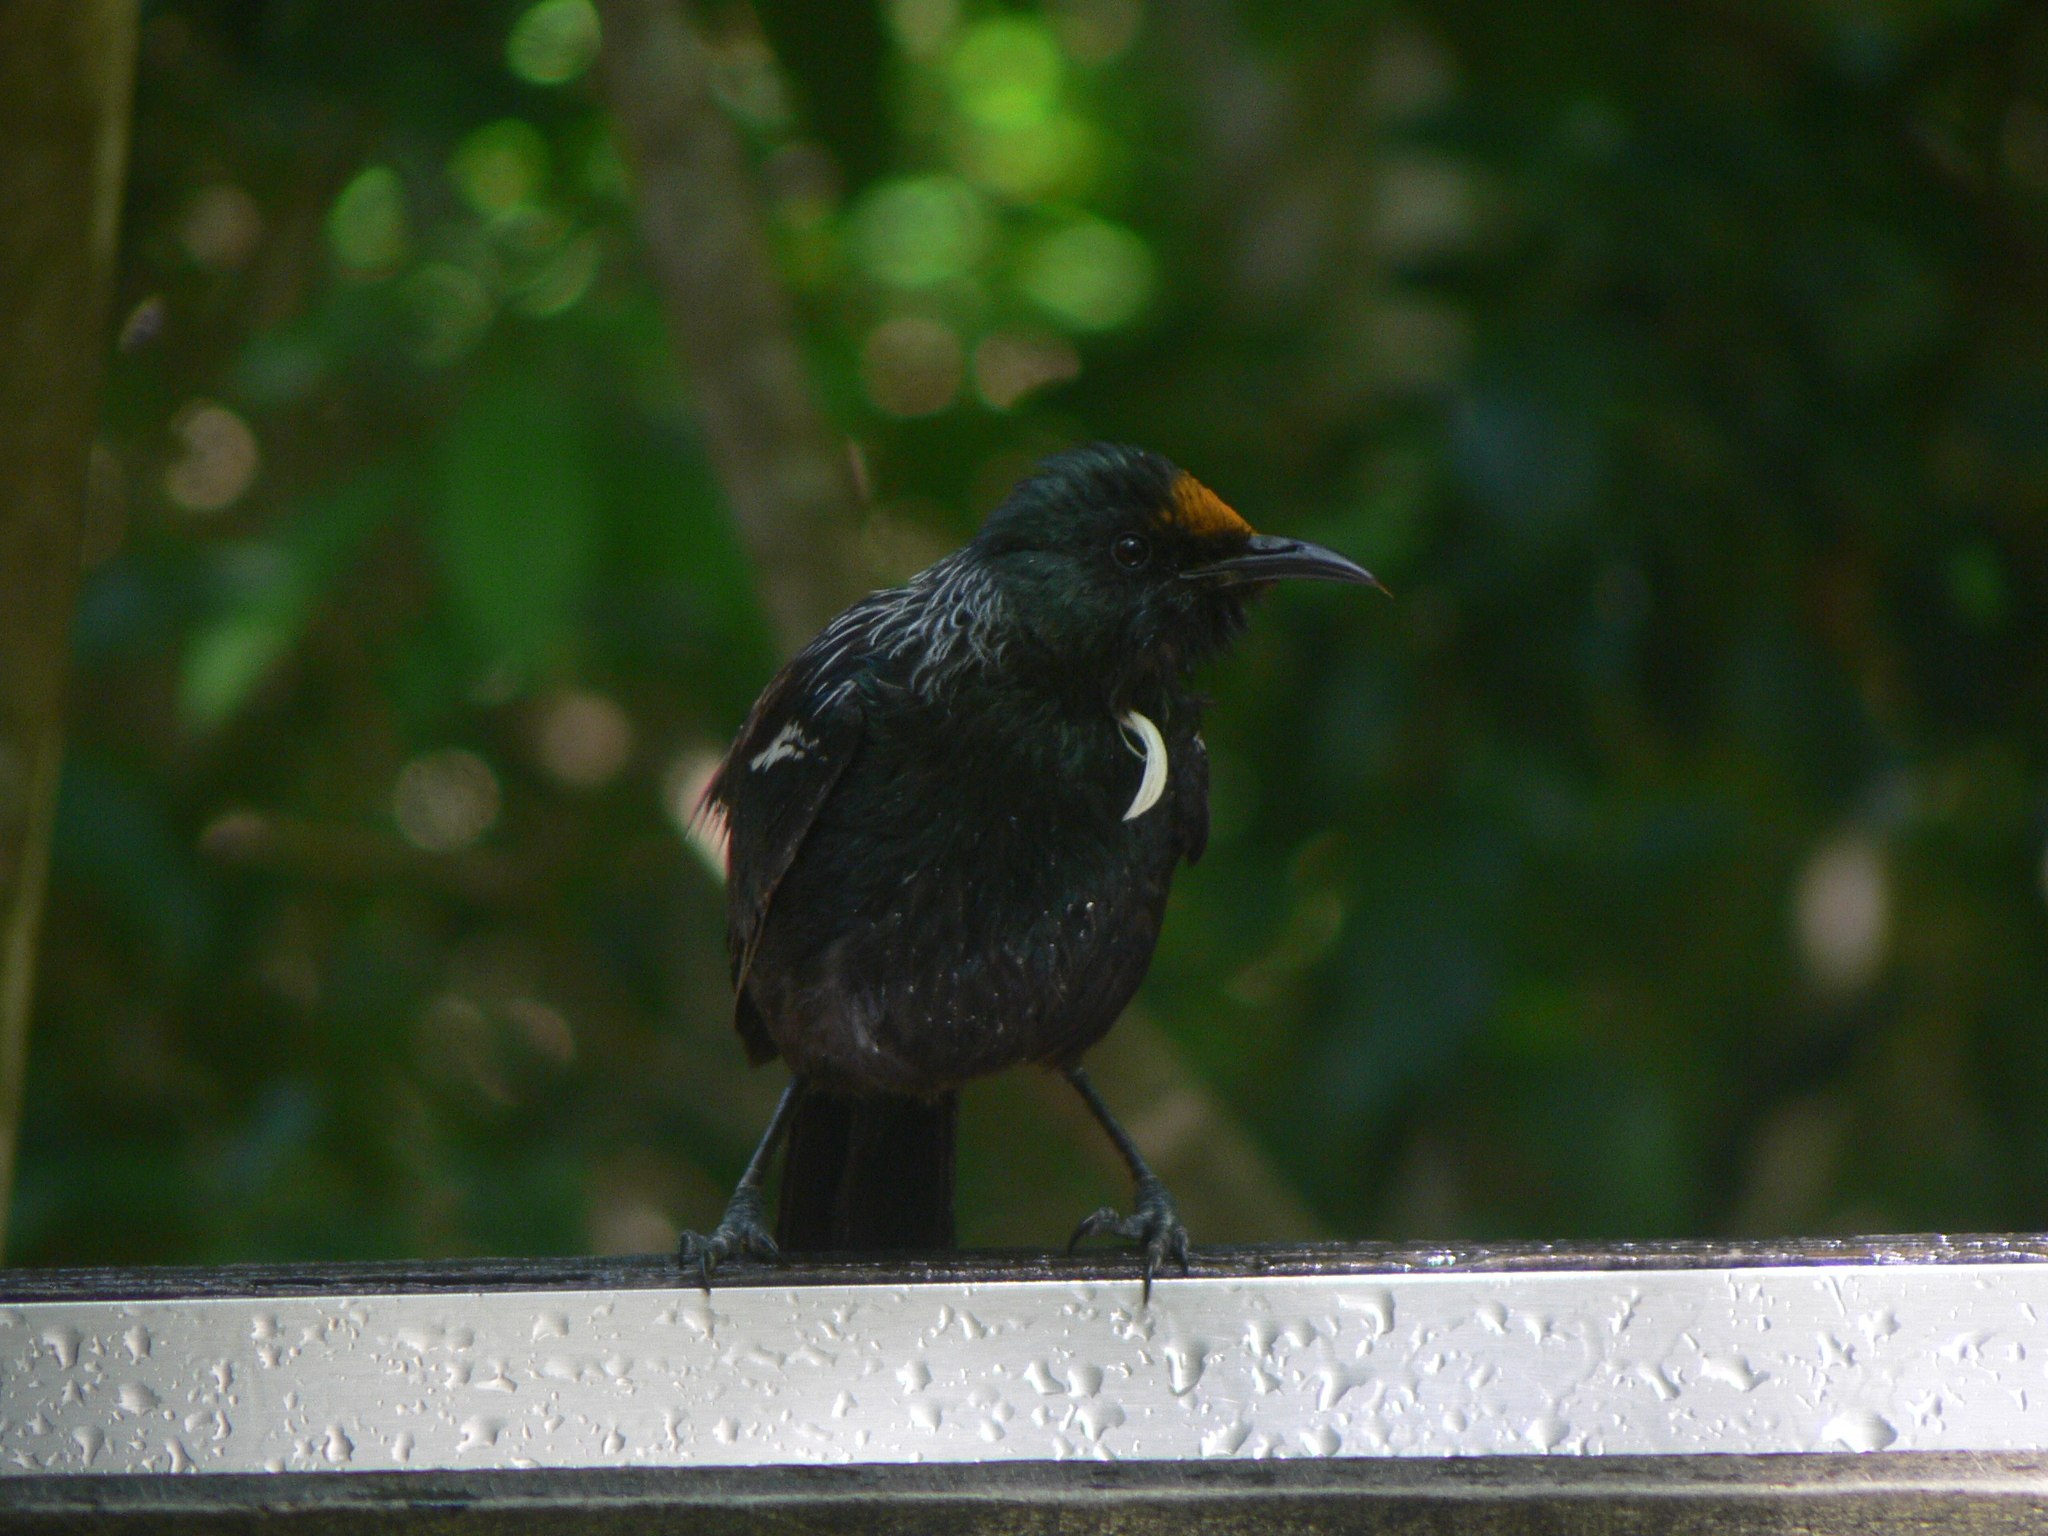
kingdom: Animalia
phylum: Chordata
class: Aves
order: Passeriformes
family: Meliphagidae
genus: Prosthemadera
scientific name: Prosthemadera novaeseelandiae
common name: Tui
